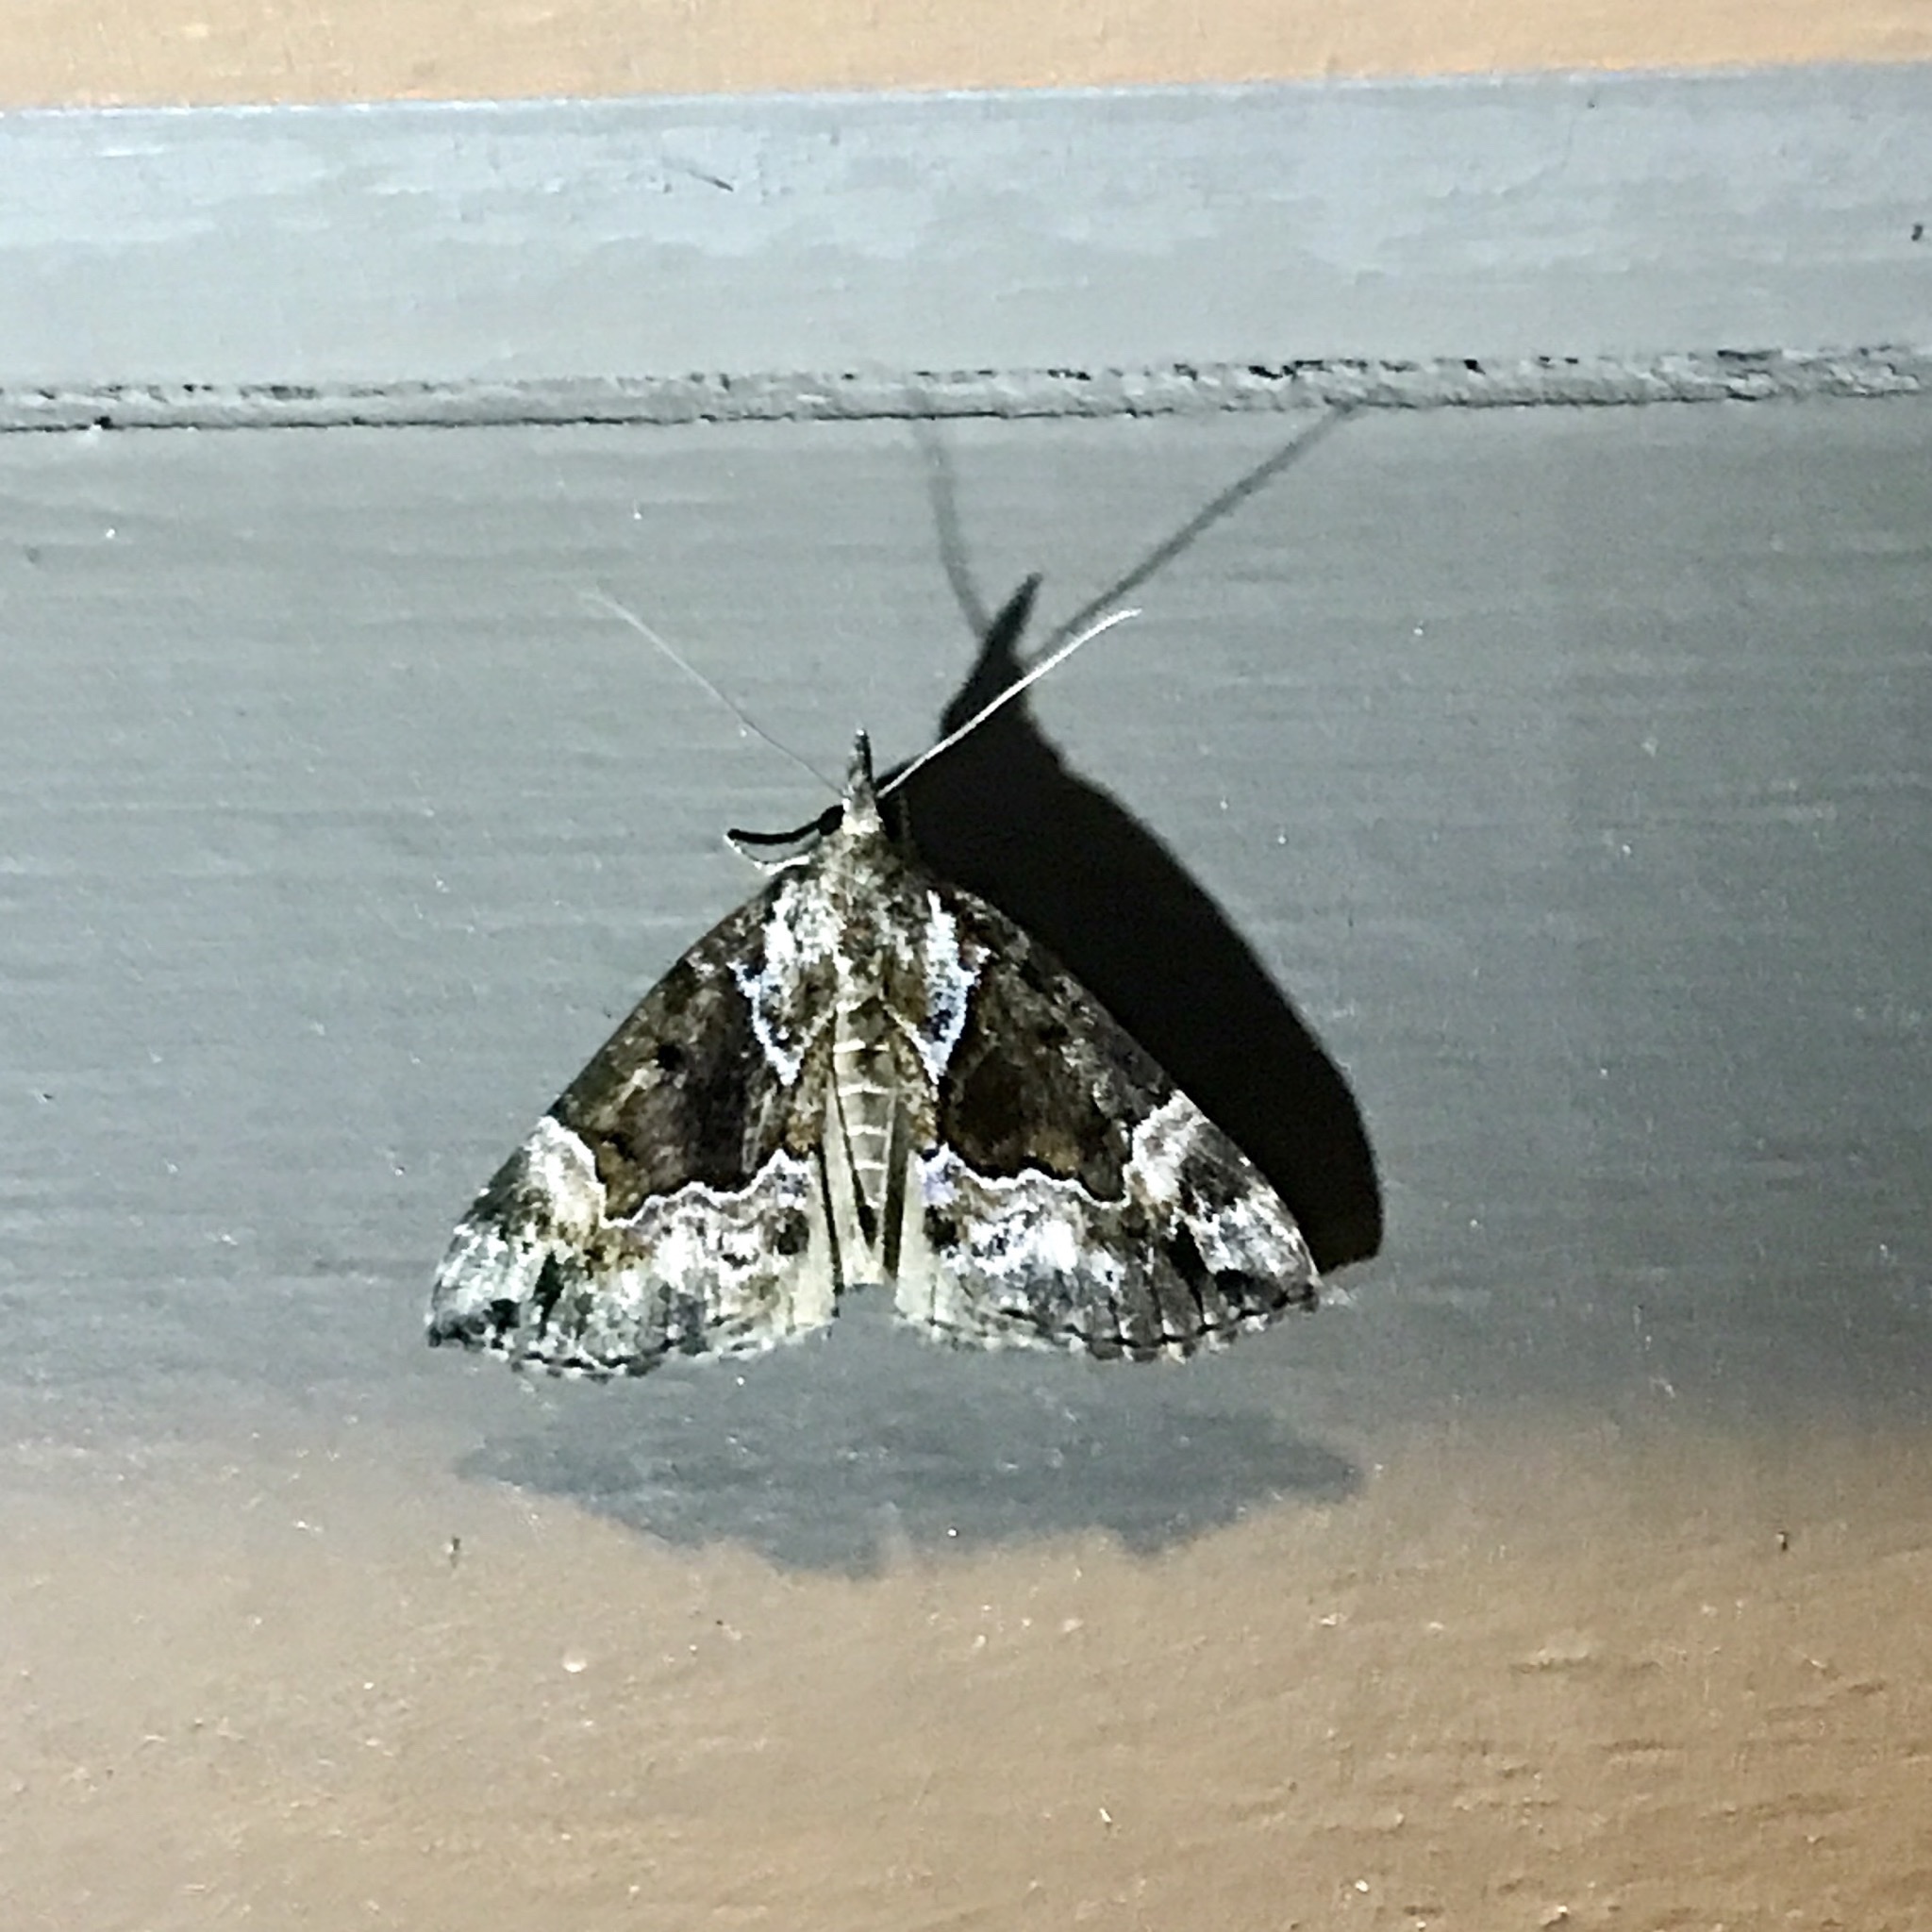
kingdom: Animalia
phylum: Arthropoda
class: Insecta
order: Lepidoptera
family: Erebidae
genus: Hypena
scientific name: Hypena palparia
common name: Mottled bomolocha moth
